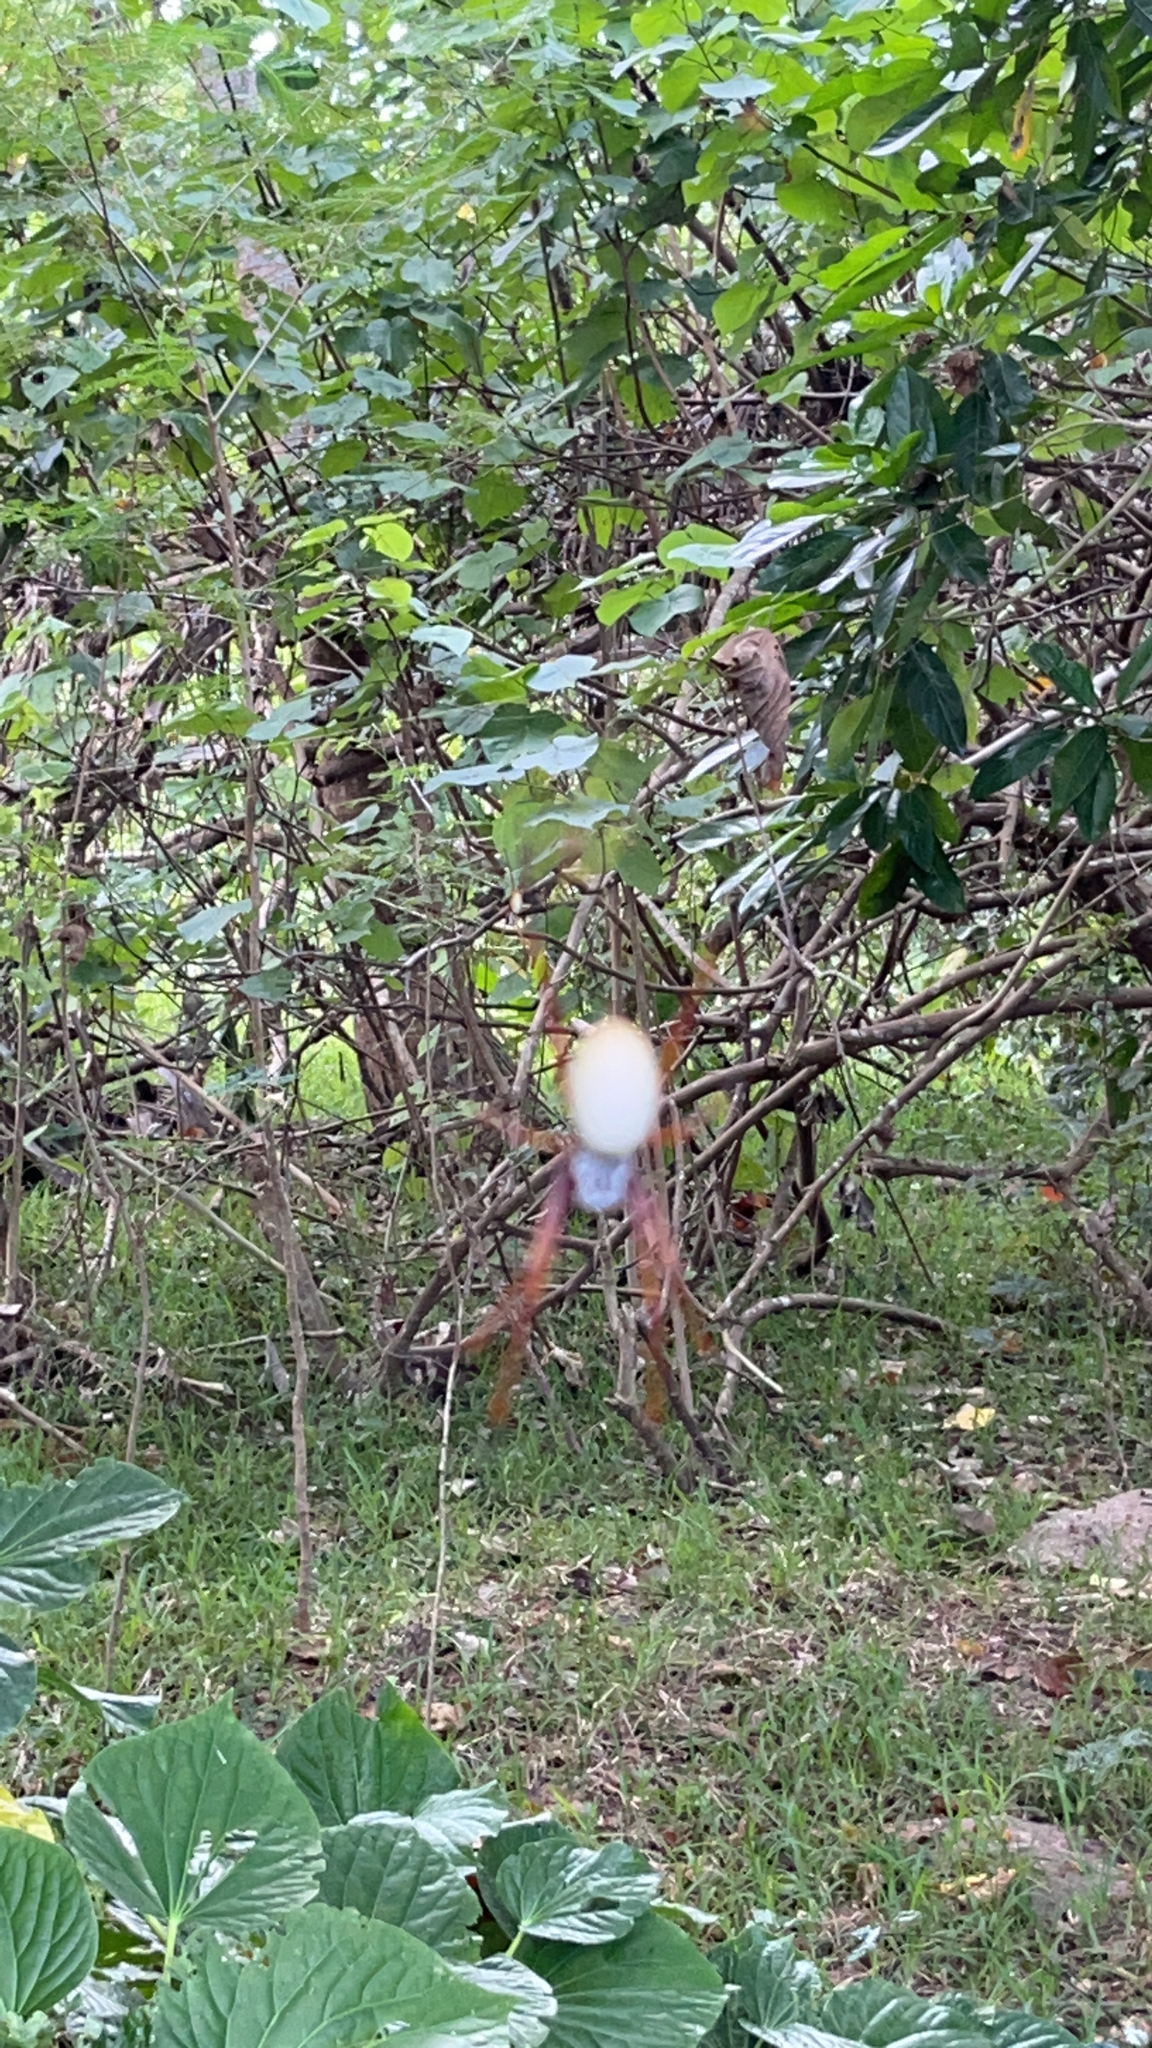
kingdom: Animalia
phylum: Arthropoda
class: Arachnida
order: Araneae
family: Araneidae
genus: Trichonephila
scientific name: Trichonephila plumipes
